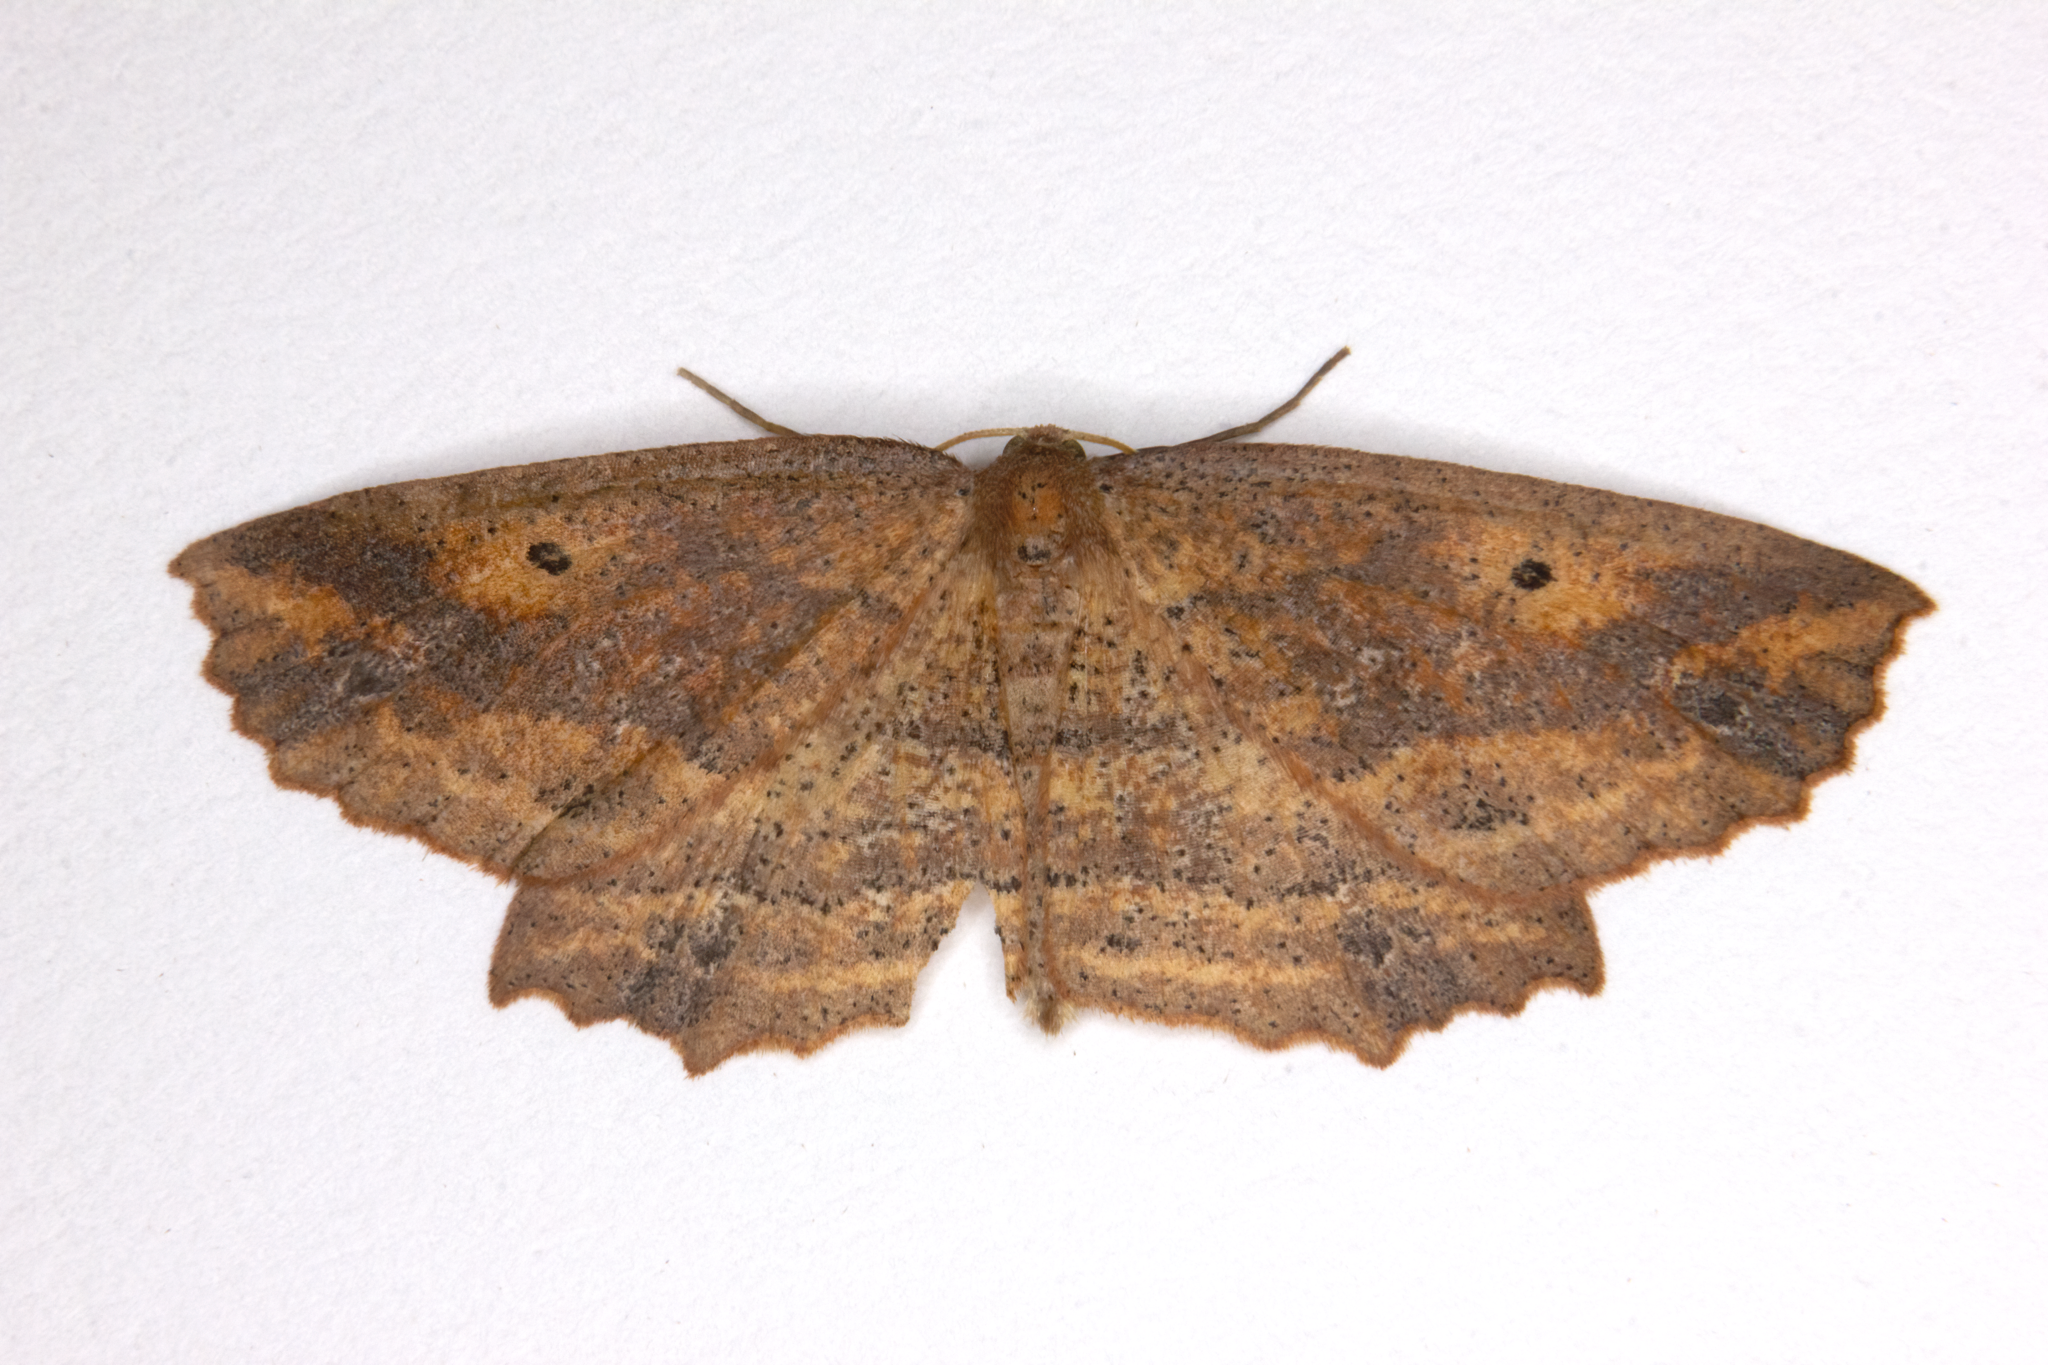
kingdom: Animalia
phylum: Arthropoda
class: Insecta
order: Lepidoptera
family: Geometridae
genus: Xyridacma
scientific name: Xyridacma veronicae
